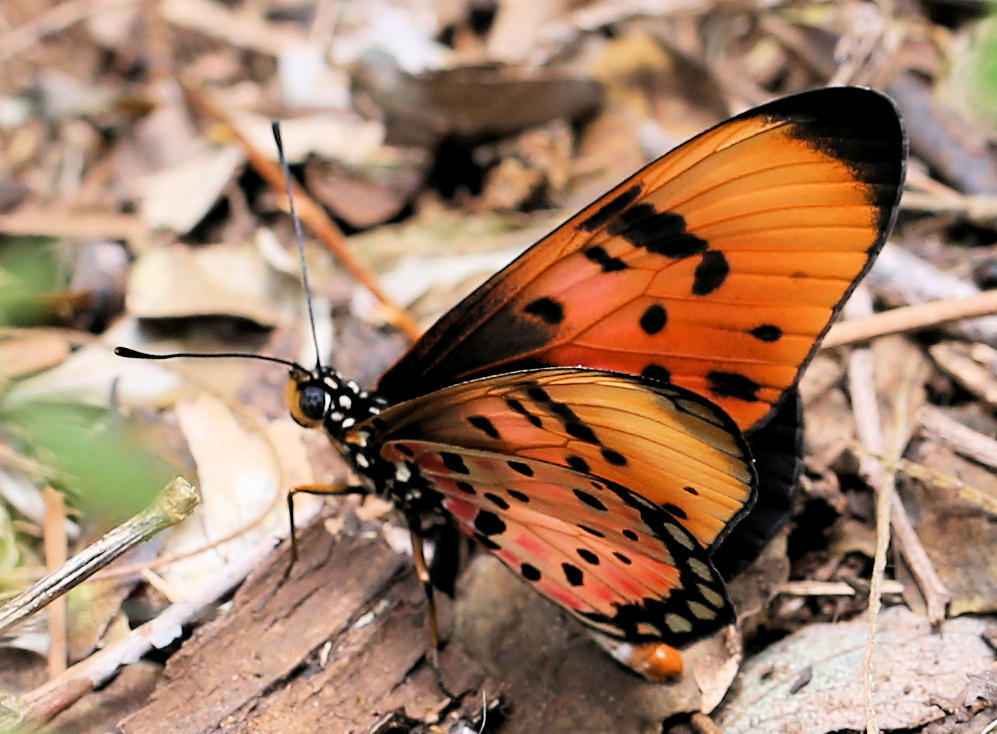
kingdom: Animalia
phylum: Arthropoda
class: Insecta
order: Lepidoptera
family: Nymphalidae
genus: Stephenia
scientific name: Stephenia
